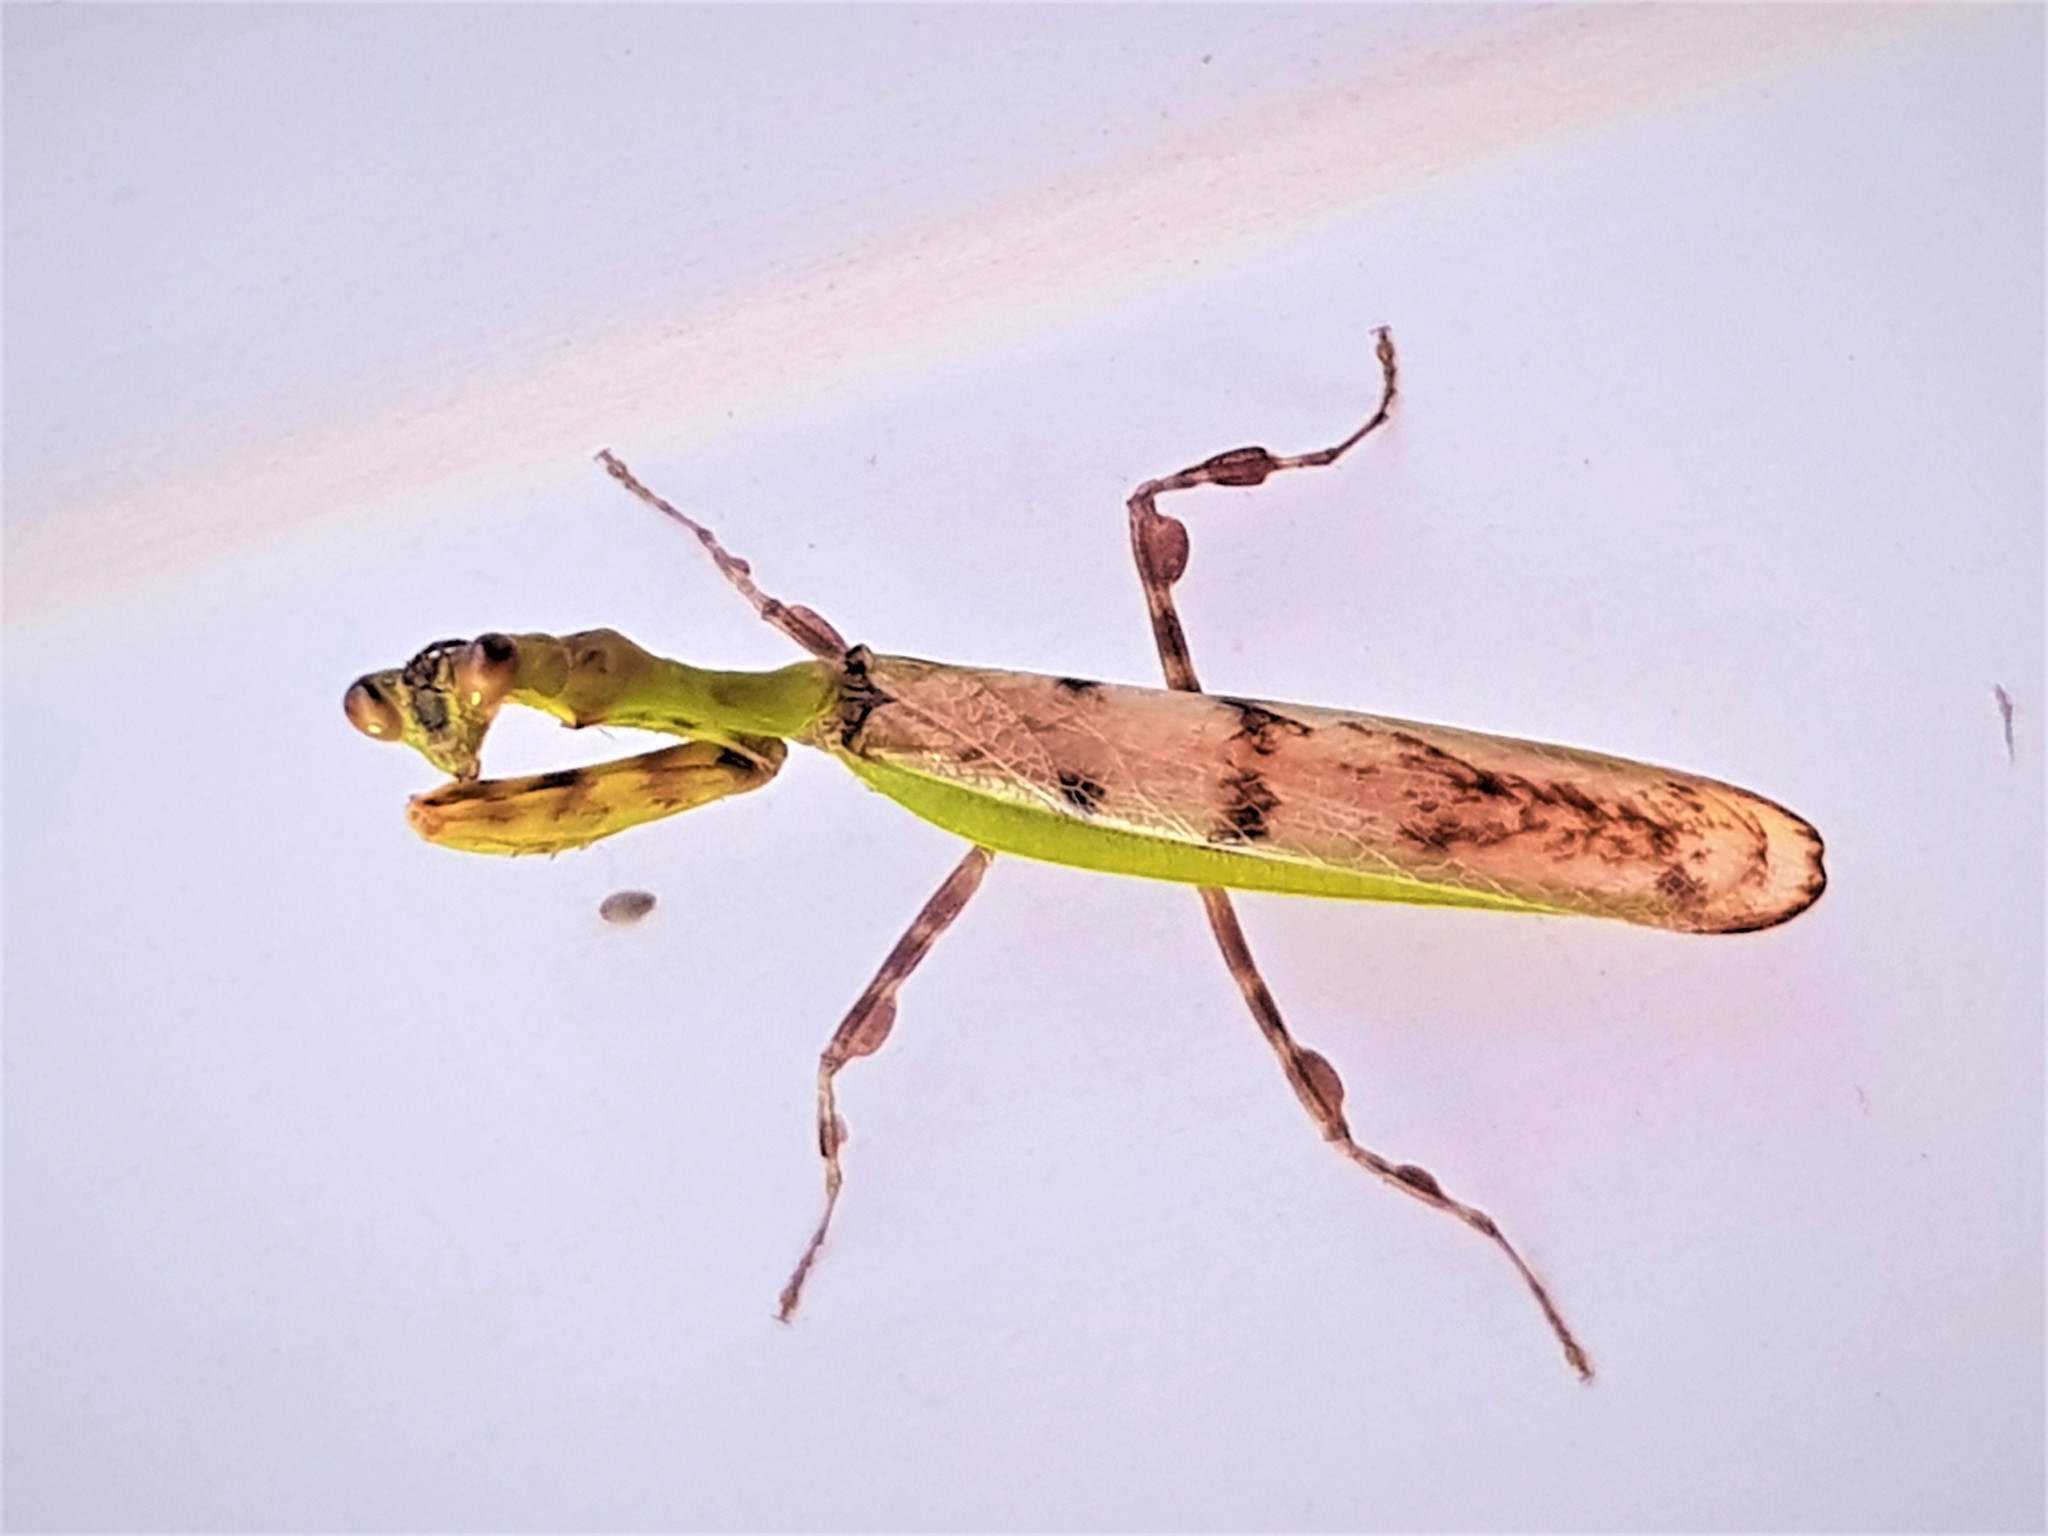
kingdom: Animalia
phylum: Arthropoda
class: Insecta
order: Mantodea
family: Mantidae
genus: Callivates
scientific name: Callivates stephanei
